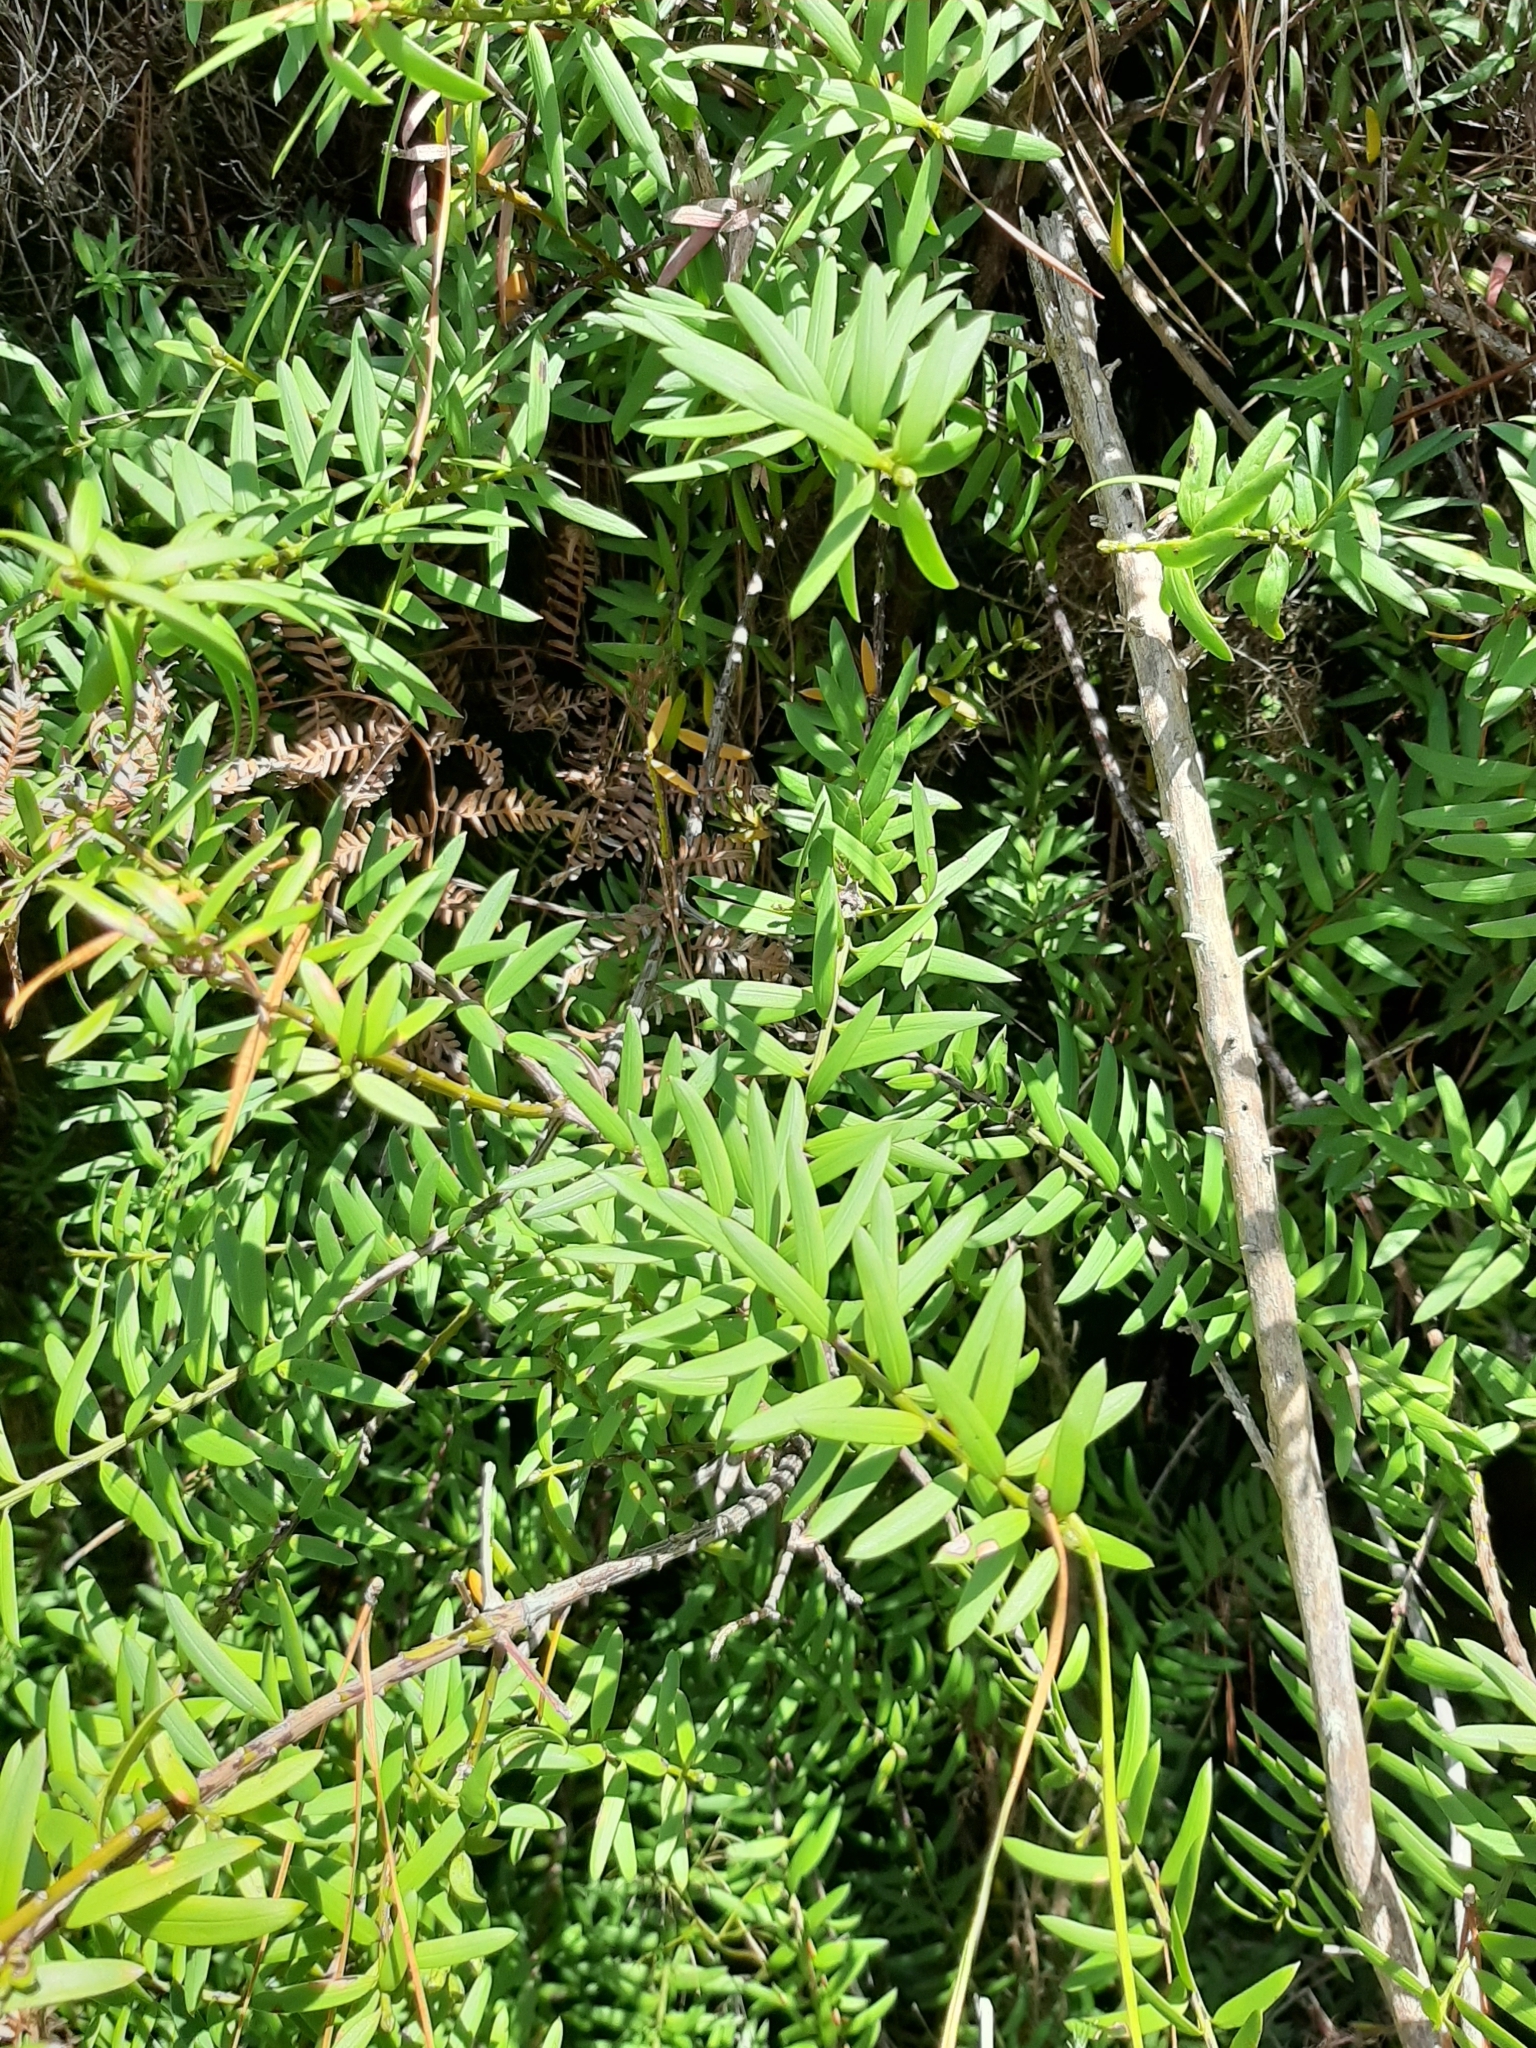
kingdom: Plantae
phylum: Tracheophyta
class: Pinopsida
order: Pinales
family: Podocarpaceae
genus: Podocarpus
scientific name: Podocarpus laetus
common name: Hall's totara
